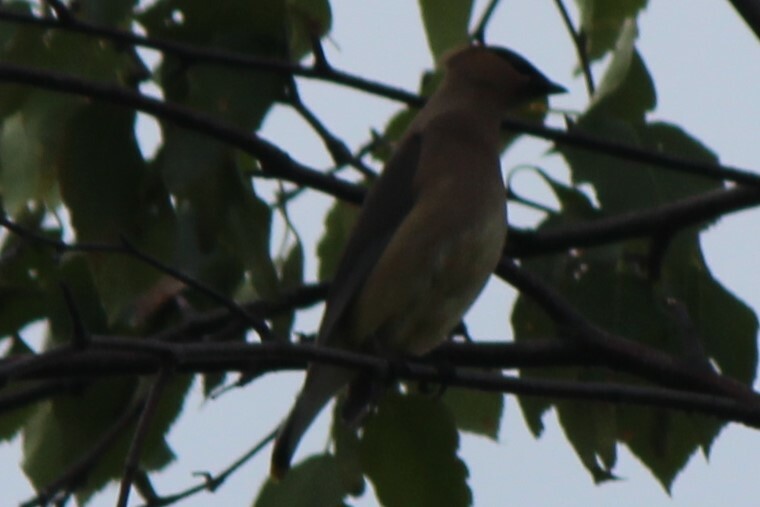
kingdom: Animalia
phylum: Chordata
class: Aves
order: Passeriformes
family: Bombycillidae
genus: Bombycilla
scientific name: Bombycilla cedrorum
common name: Cedar waxwing
